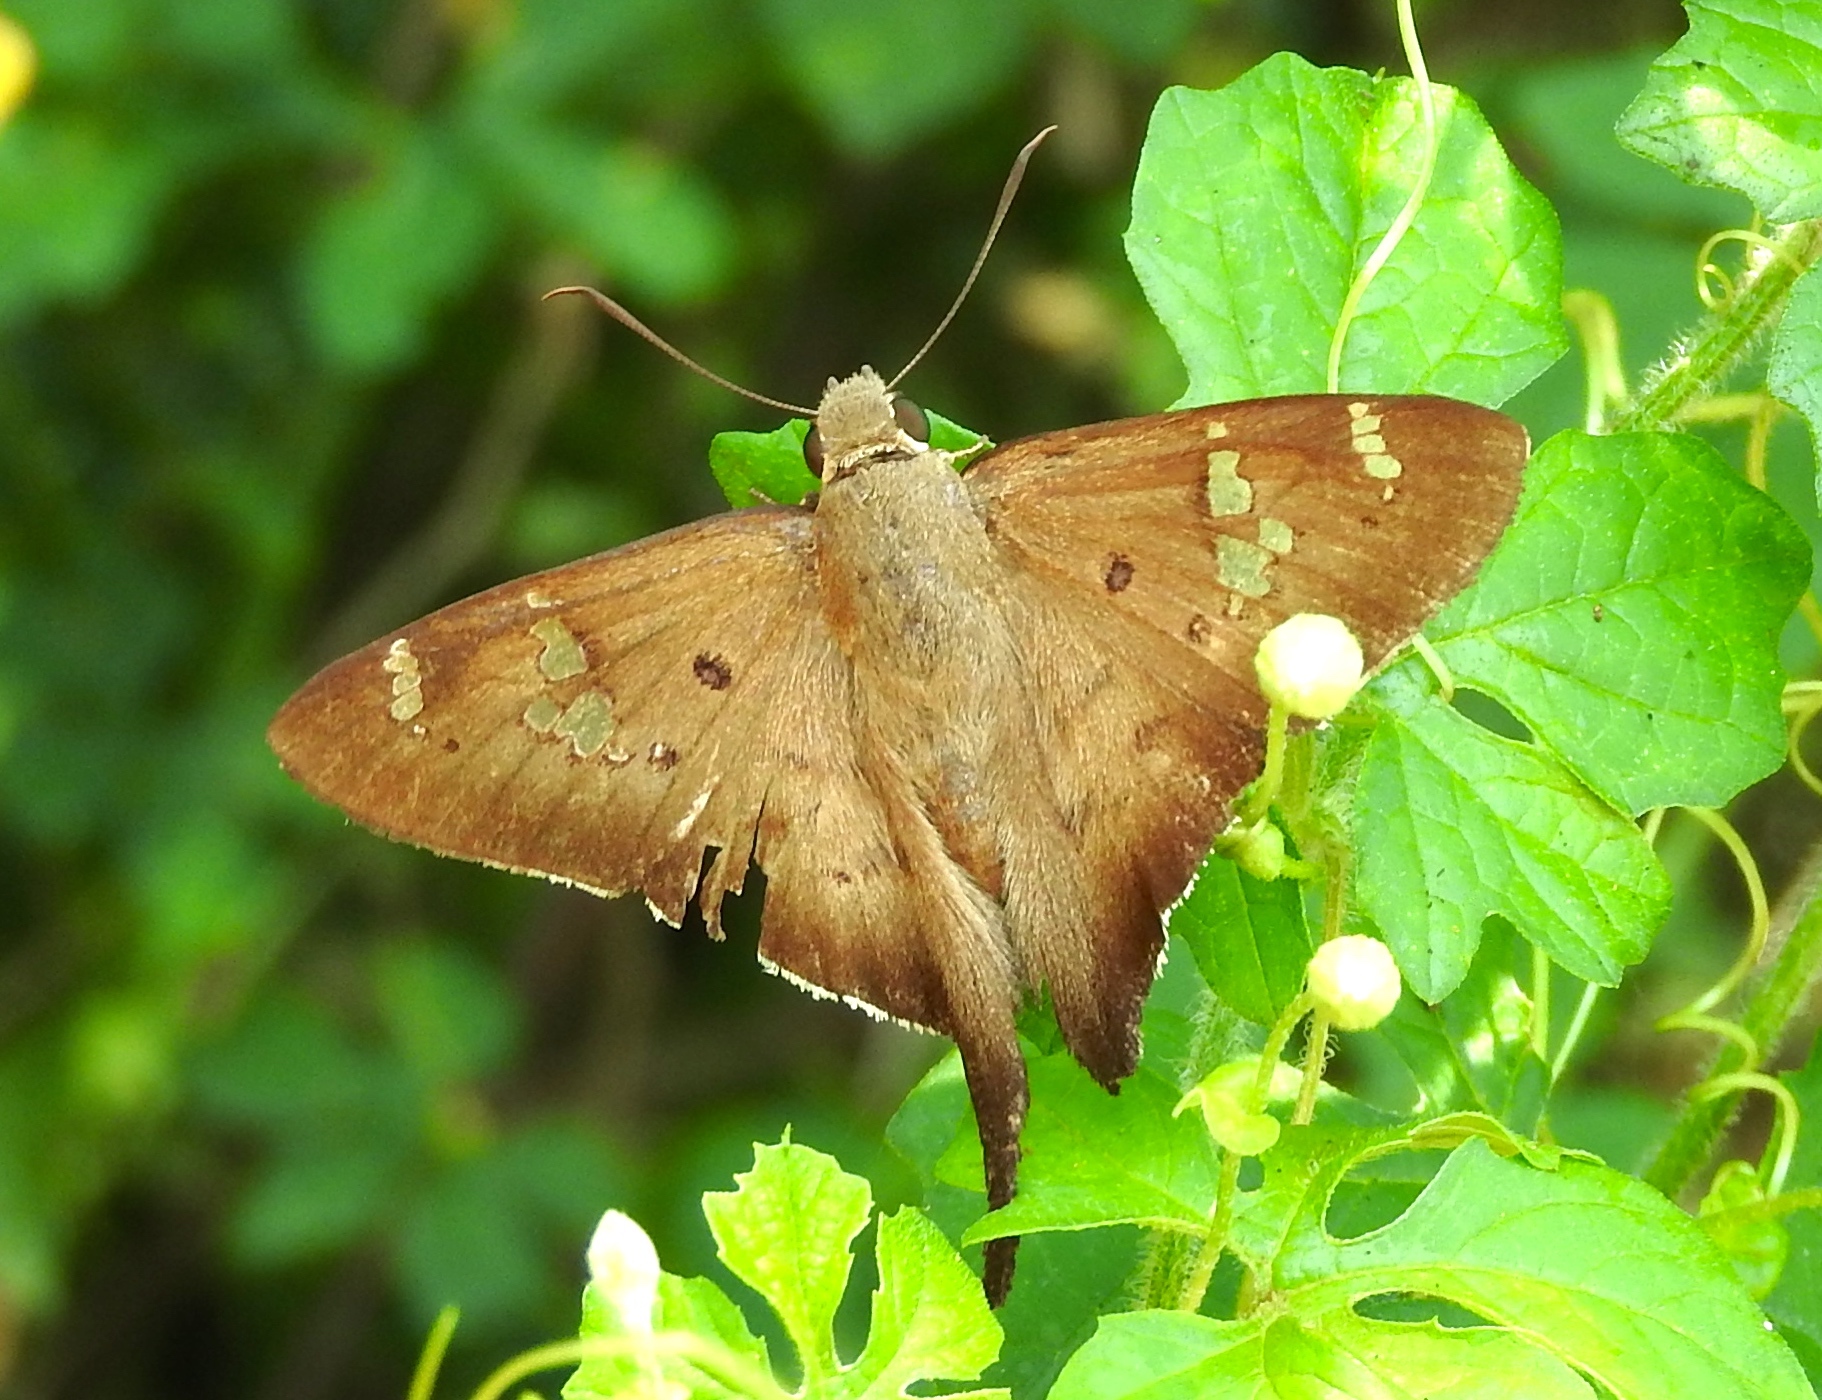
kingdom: Animalia
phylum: Arthropoda
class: Insecta
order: Lepidoptera
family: Hesperiidae
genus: Ectomis
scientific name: Ectomis
